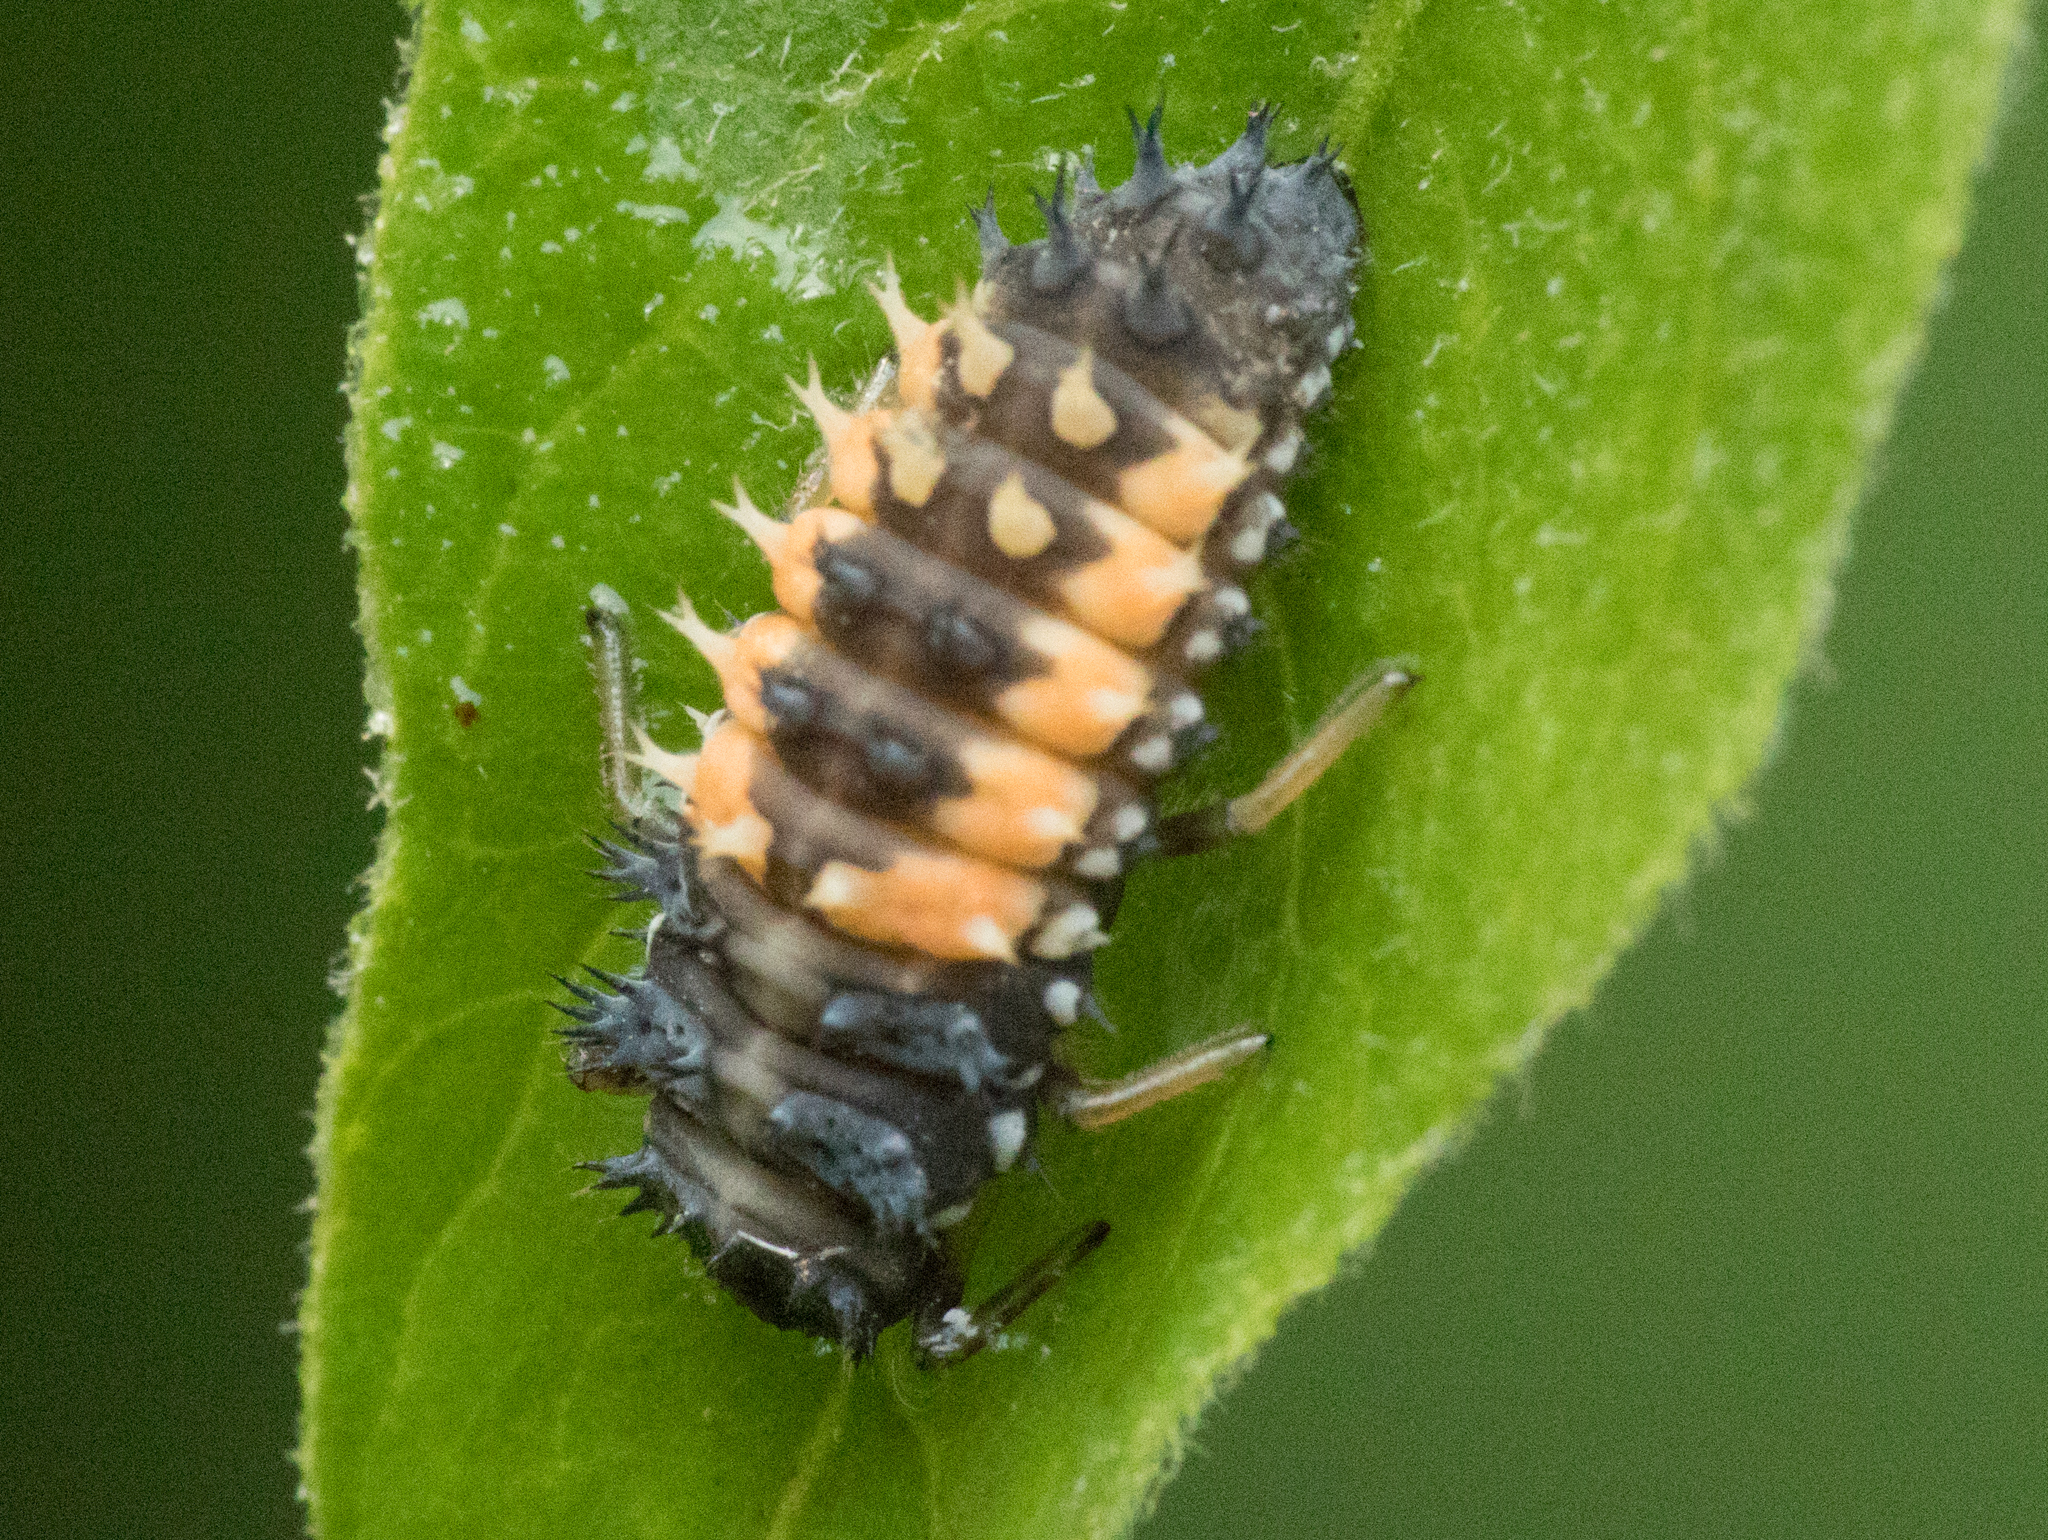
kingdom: Animalia
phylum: Arthropoda
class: Insecta
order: Coleoptera
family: Coccinellidae
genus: Harmonia
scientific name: Harmonia axyridis
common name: Harlequin ladybird
